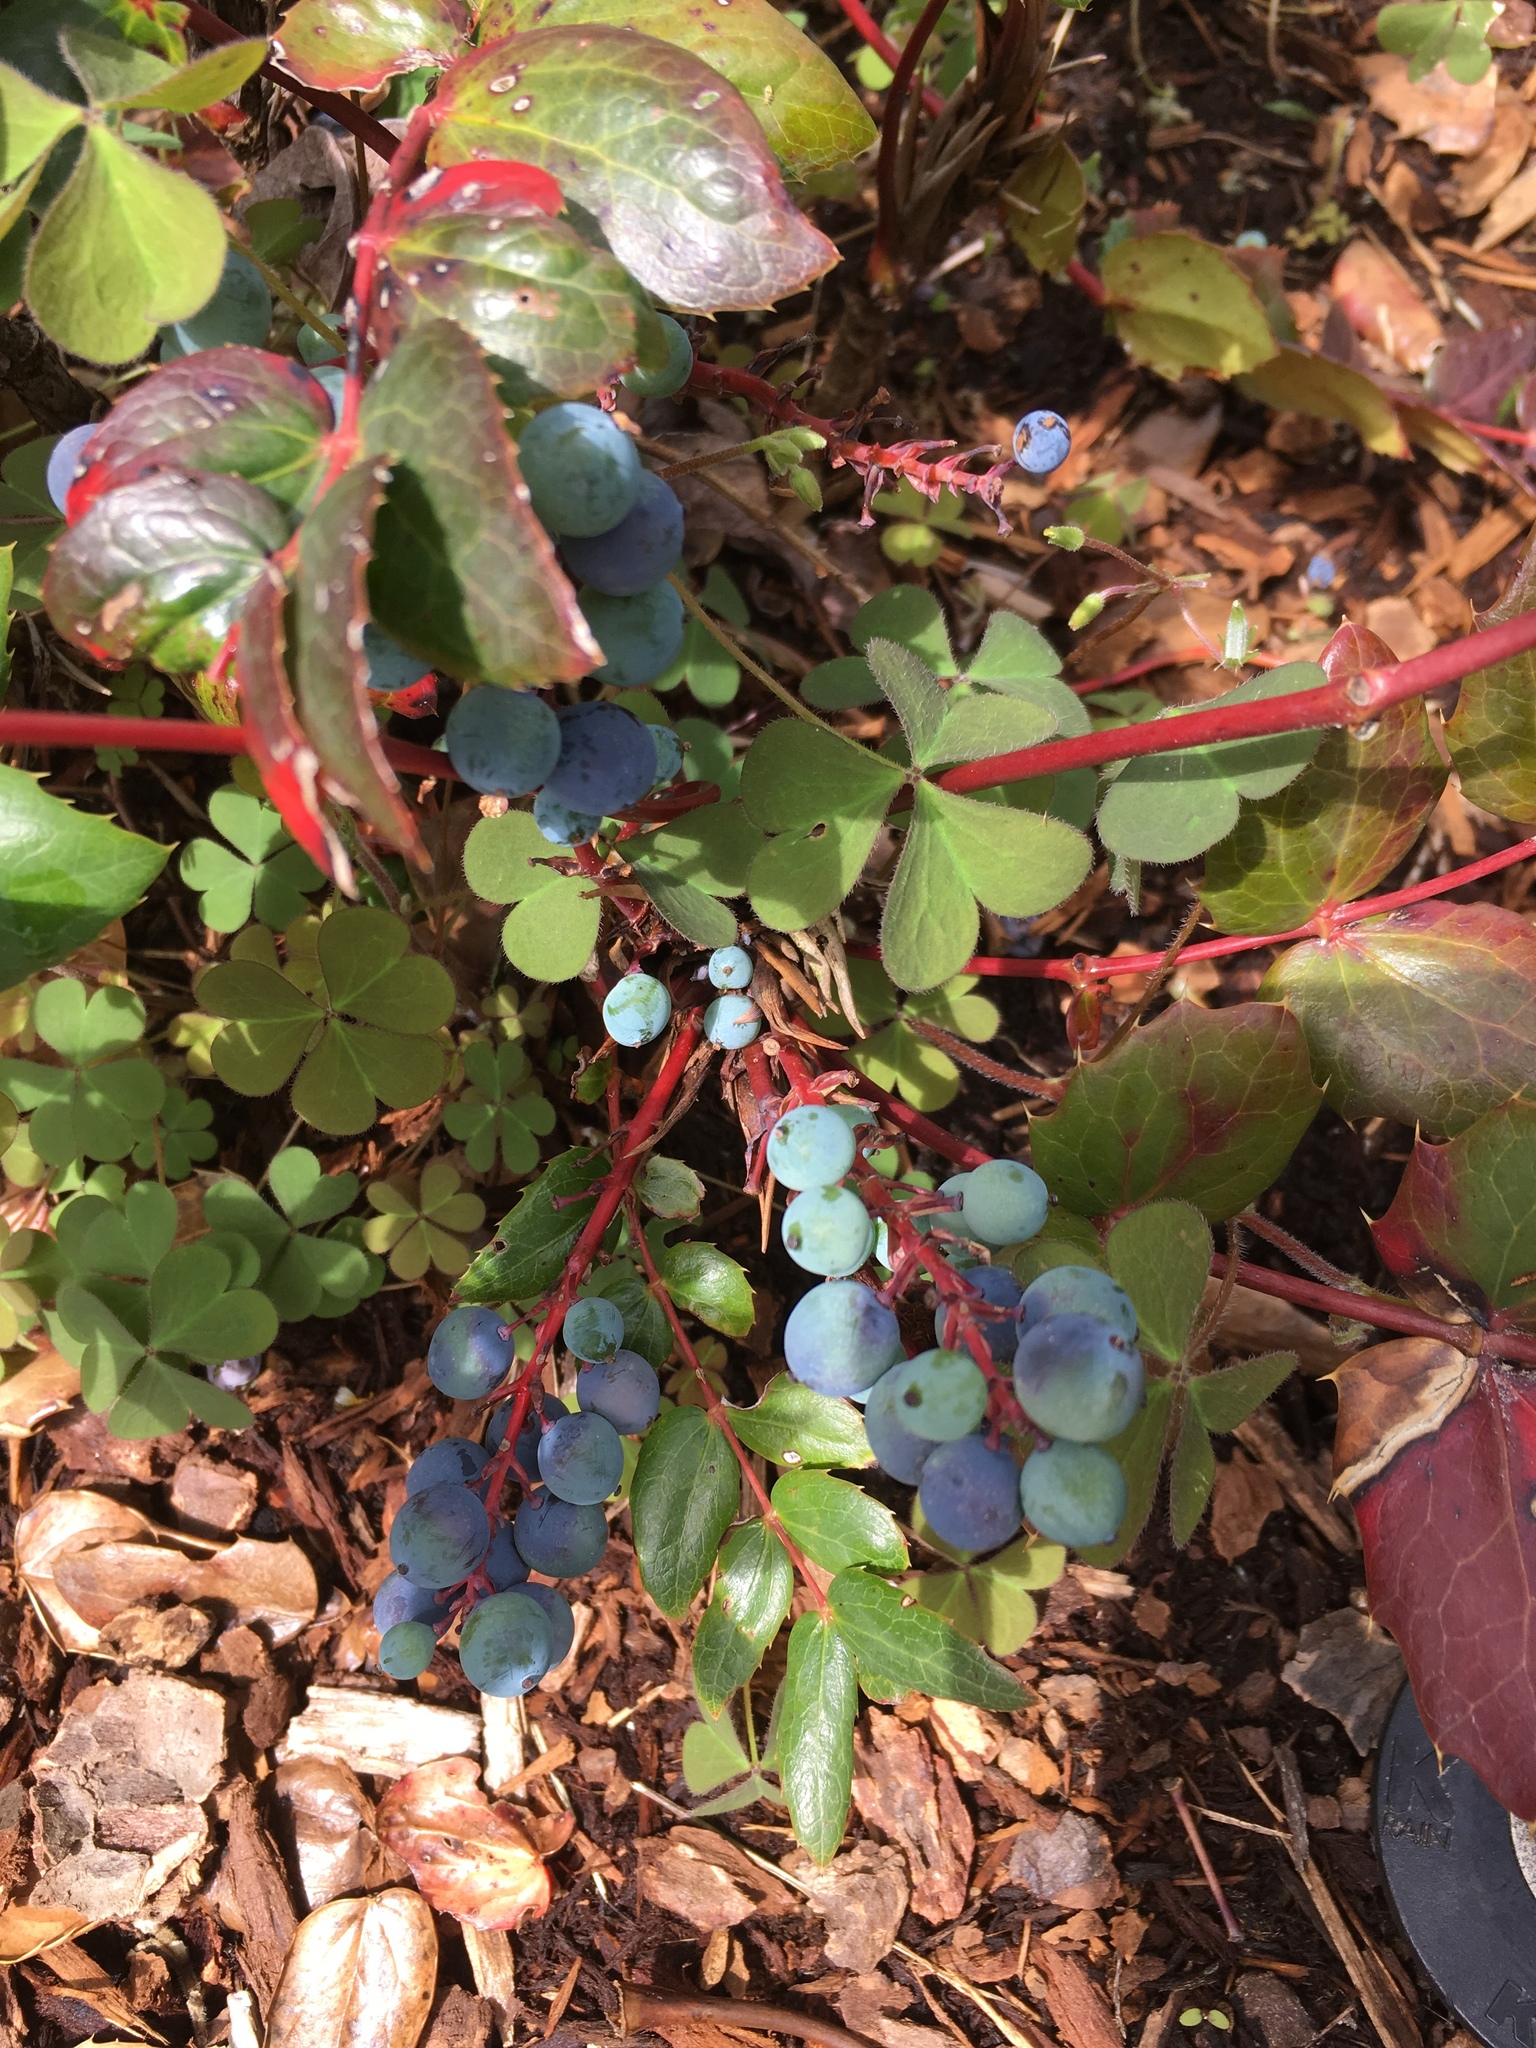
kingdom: Plantae
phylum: Tracheophyta
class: Magnoliopsida
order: Ranunculales
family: Berberidaceae
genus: Mahonia
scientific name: Mahonia nervosa
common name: Cascade oregon-grape
